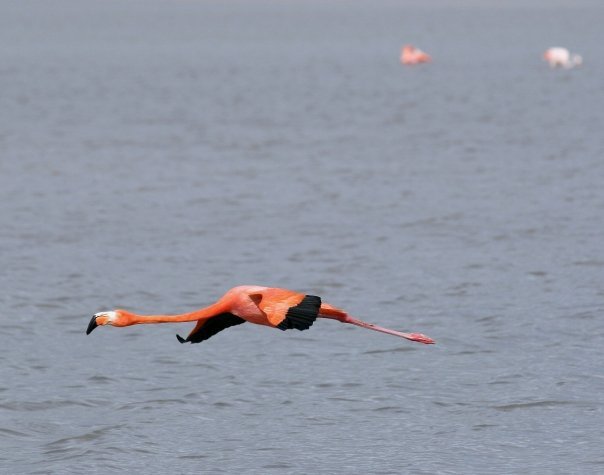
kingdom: Animalia
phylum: Chordata
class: Aves
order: Phoenicopteriformes
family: Phoenicopteridae
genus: Phoenicopterus
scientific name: Phoenicopterus ruber
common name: American flamingo
